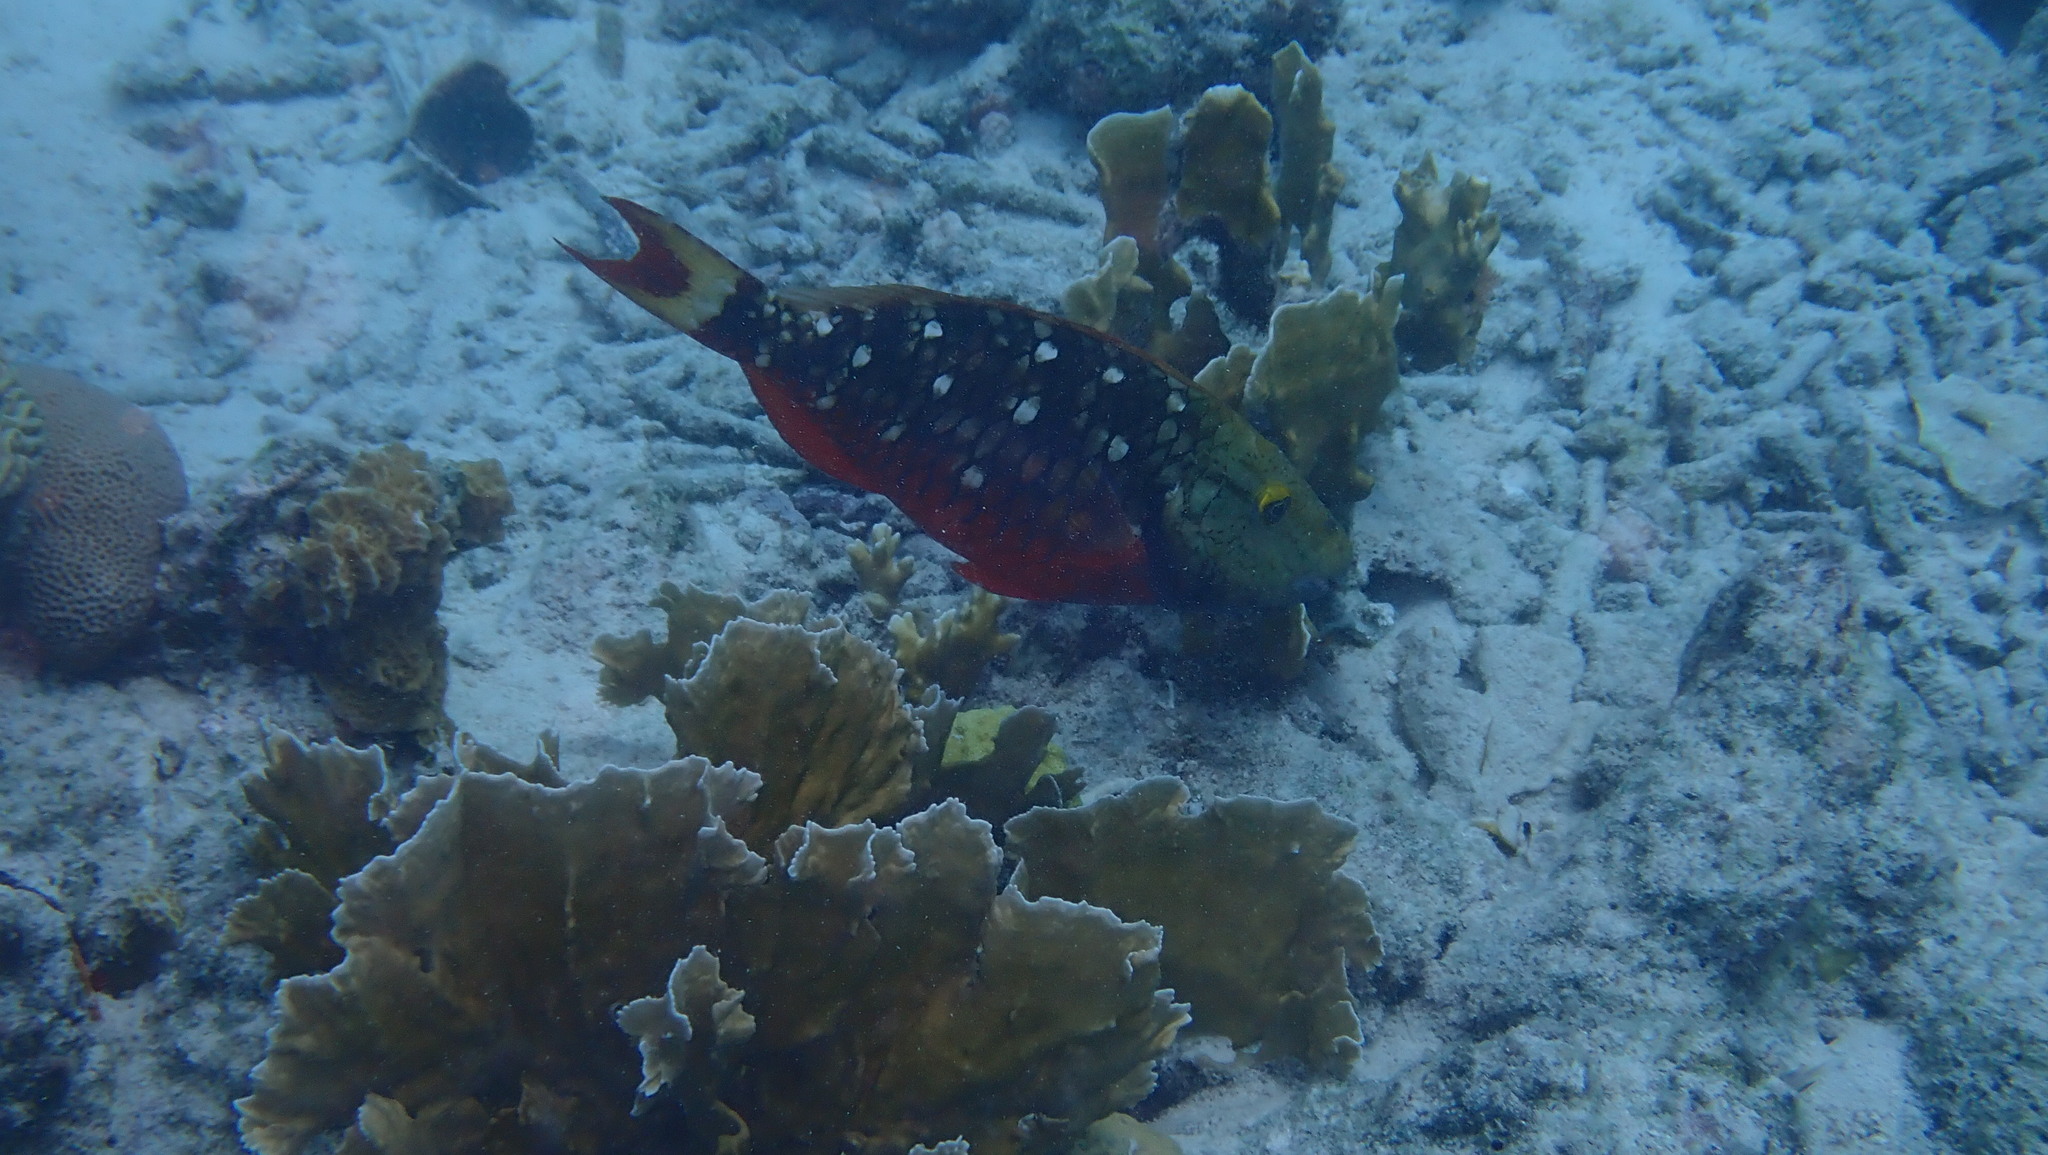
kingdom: Animalia
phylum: Chordata
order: Perciformes
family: Scaridae
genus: Sparisoma
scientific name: Sparisoma viride
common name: Stoplight parrotfish
